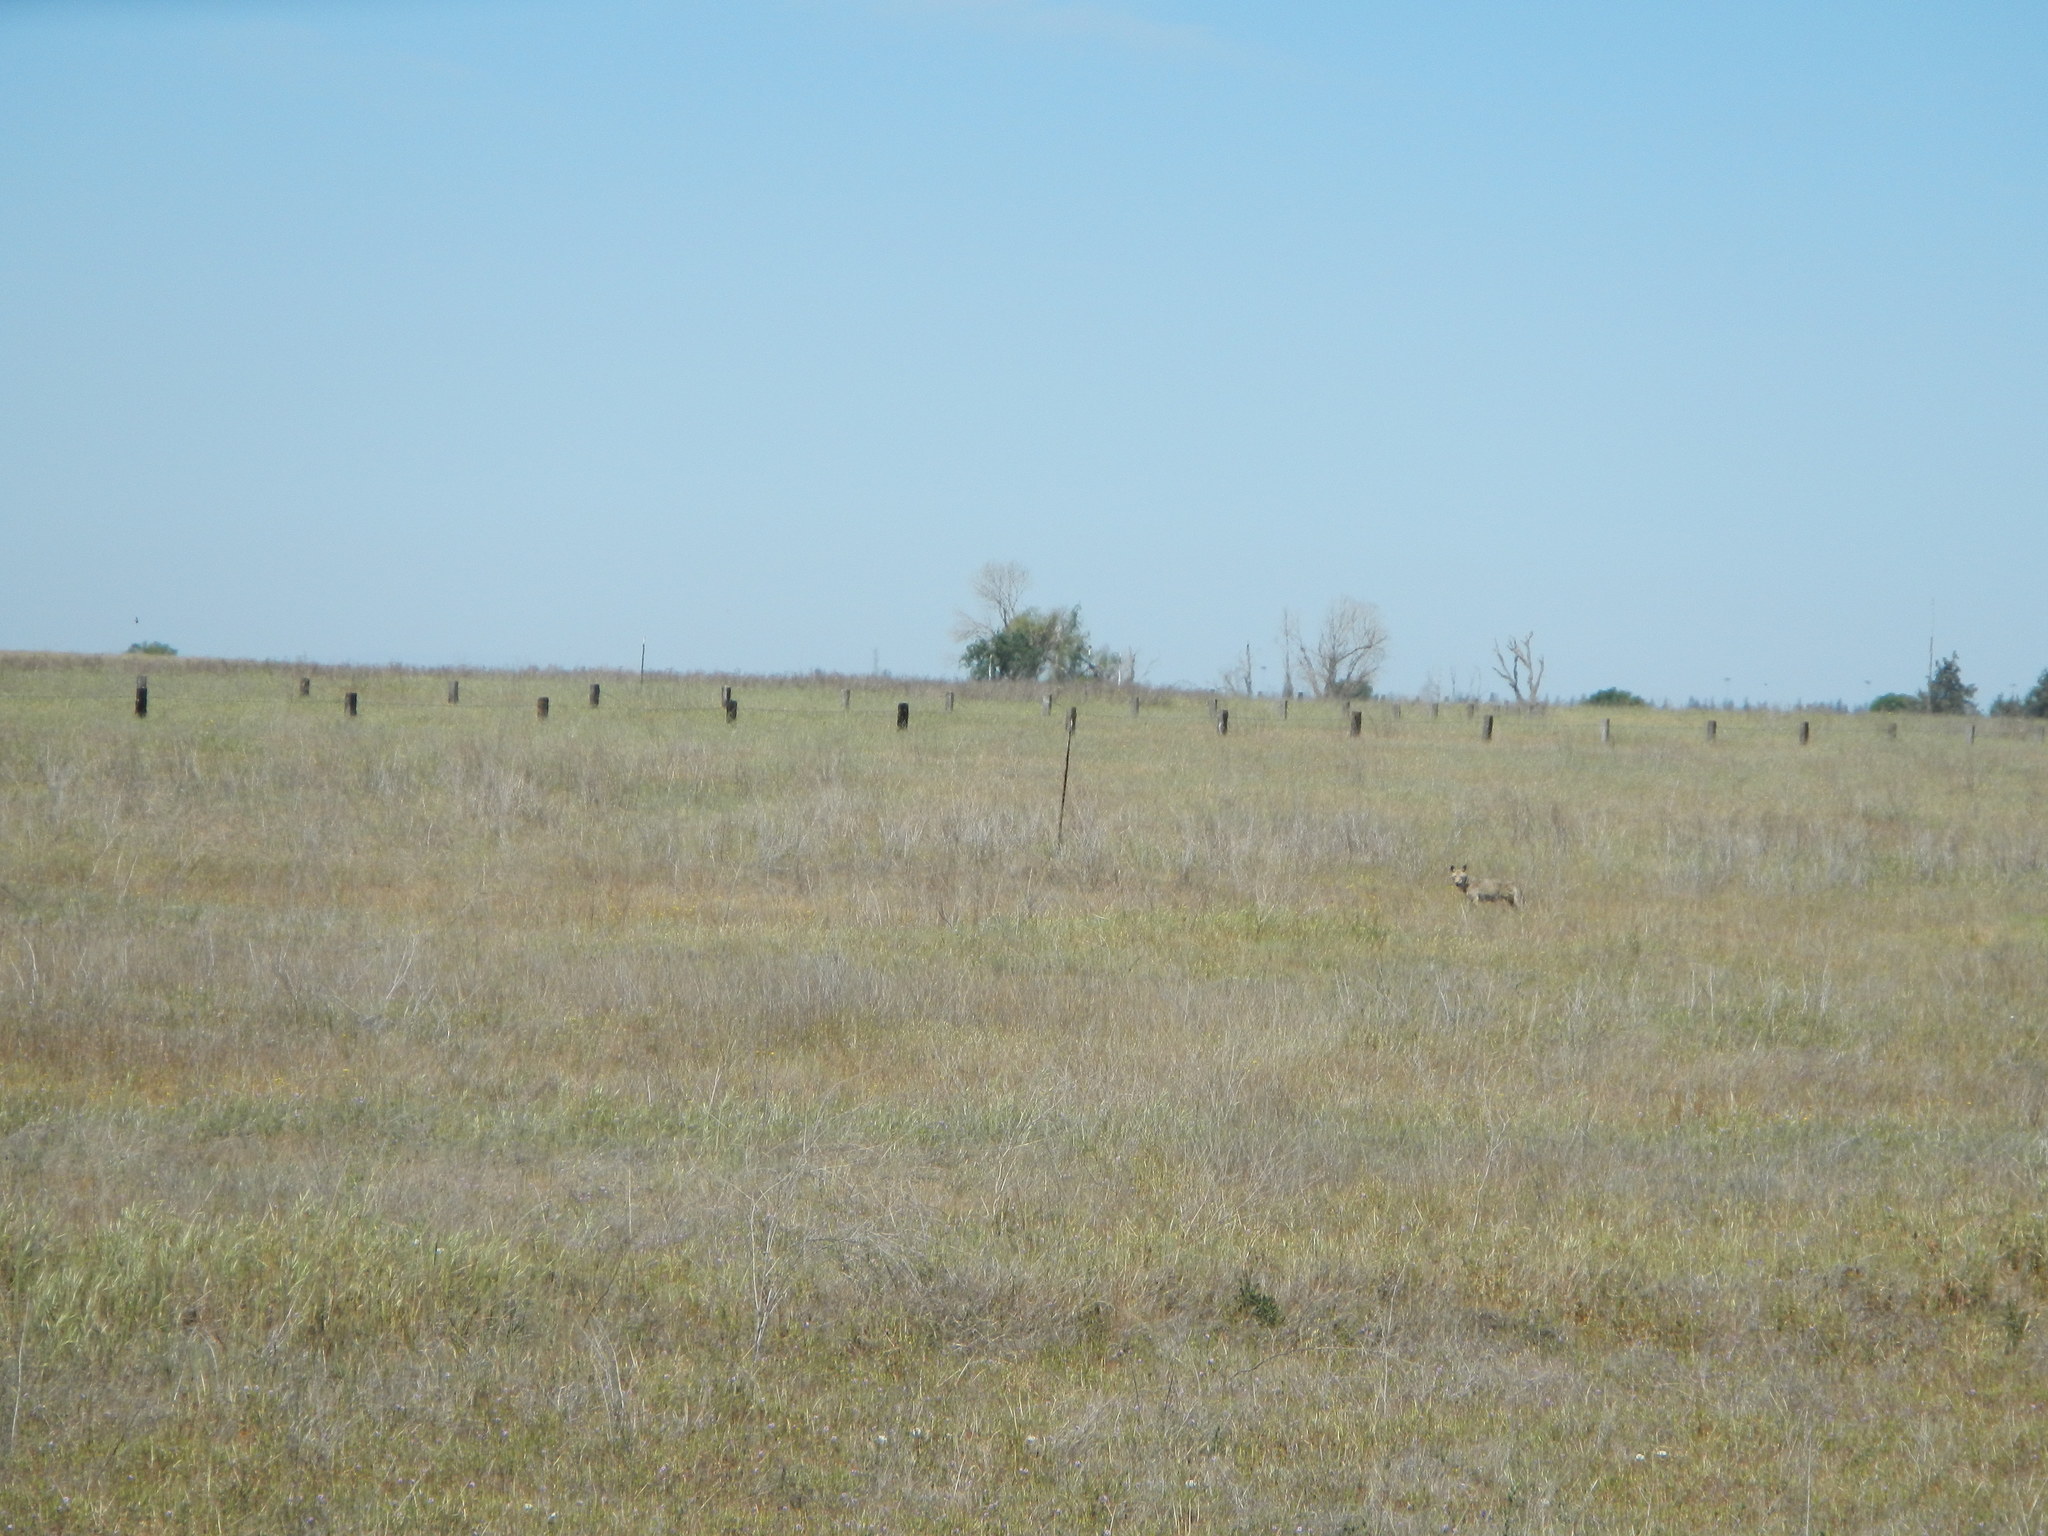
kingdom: Animalia
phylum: Chordata
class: Mammalia
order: Carnivora
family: Canidae
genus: Canis
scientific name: Canis latrans
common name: Coyote
